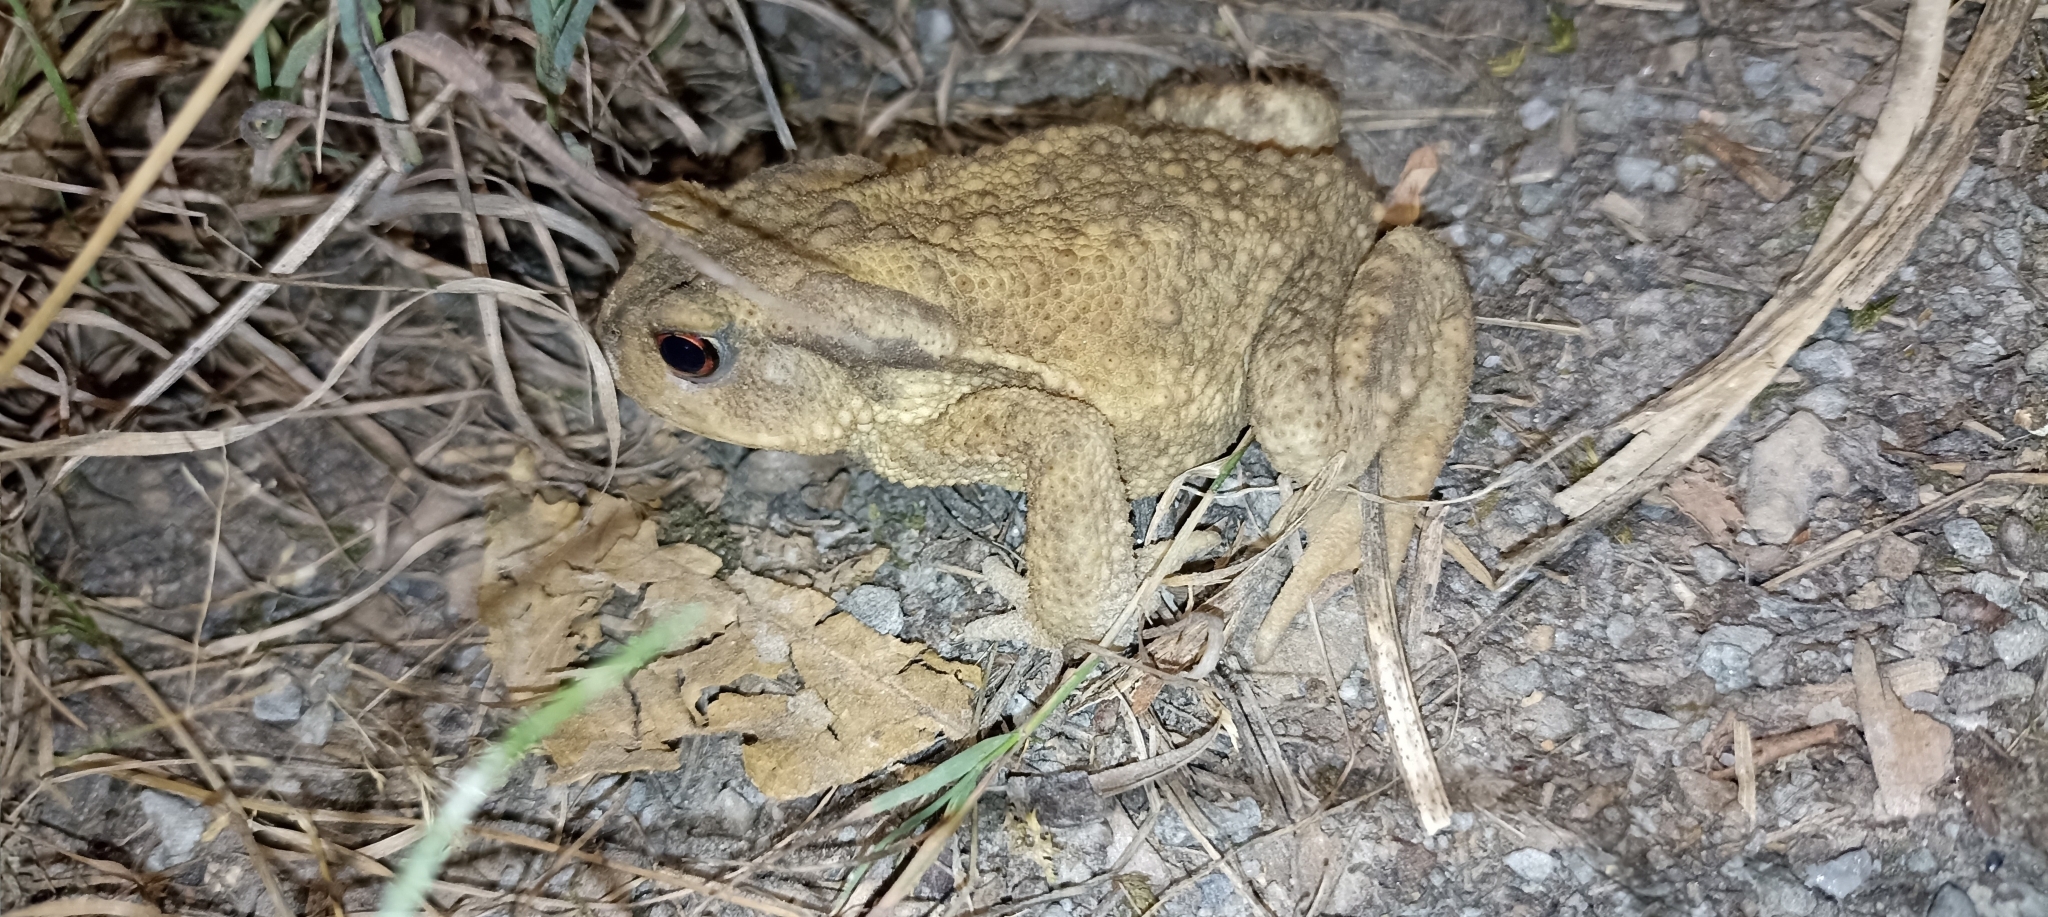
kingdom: Animalia
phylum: Chordata
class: Amphibia
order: Anura
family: Bufonidae
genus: Bufo
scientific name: Bufo spinosus
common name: Western common toad
